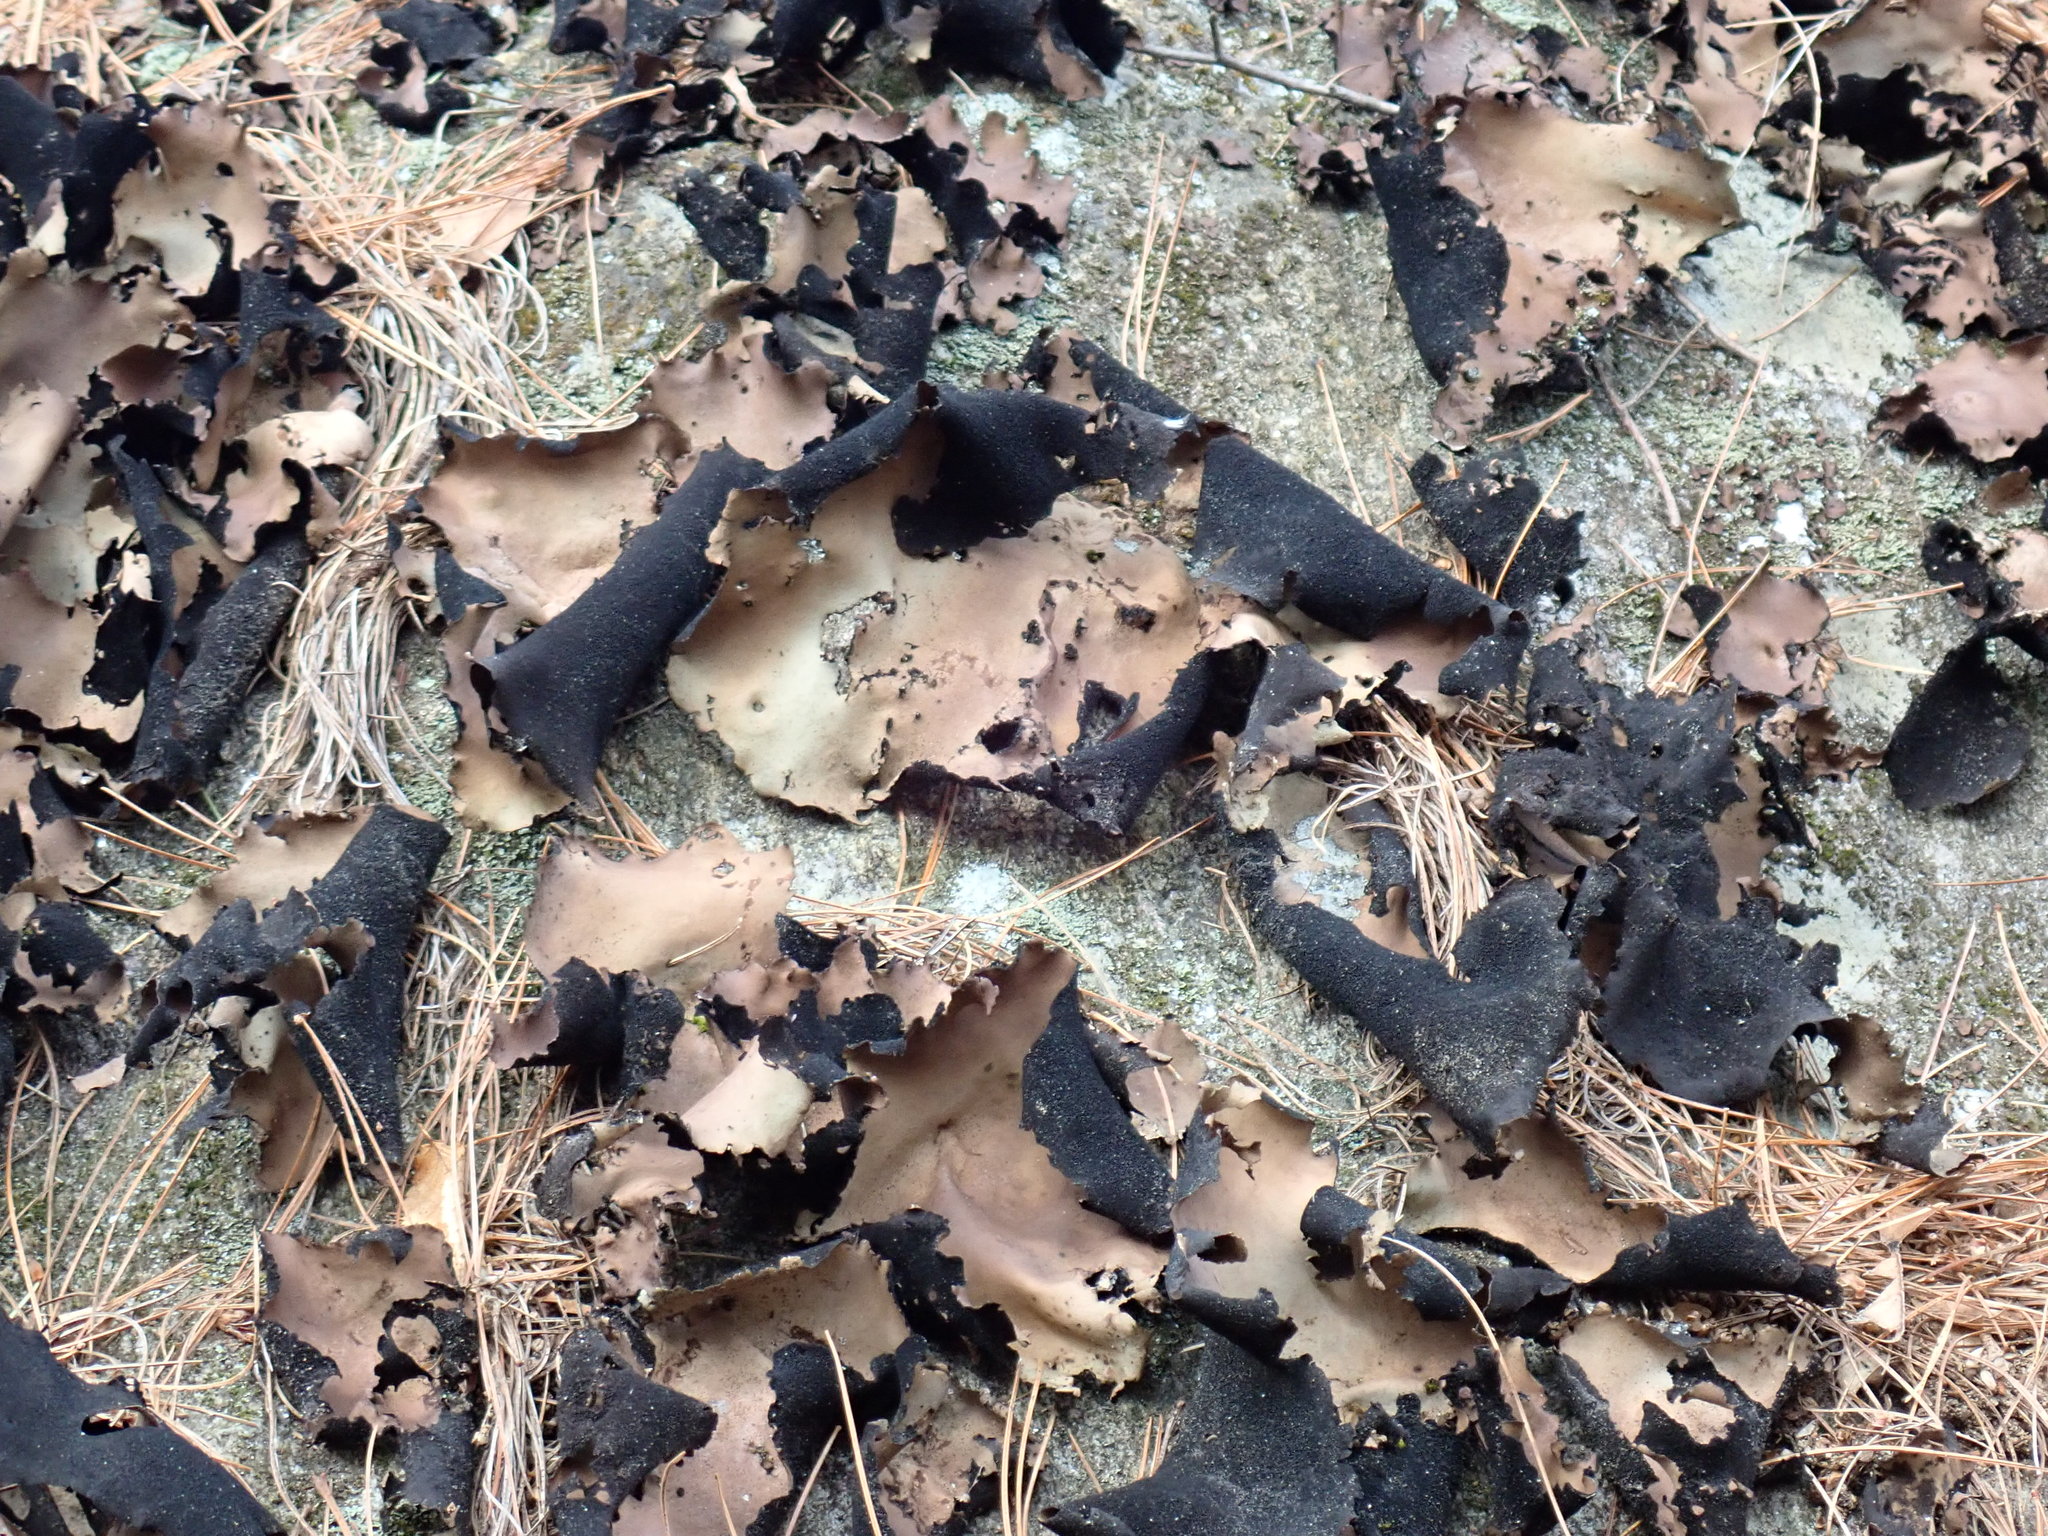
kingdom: Fungi
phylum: Ascomycota
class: Lecanoromycetes
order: Umbilicariales
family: Umbilicariaceae
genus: Umbilicaria
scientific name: Umbilicaria mammulata
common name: Smooth rock tripe
